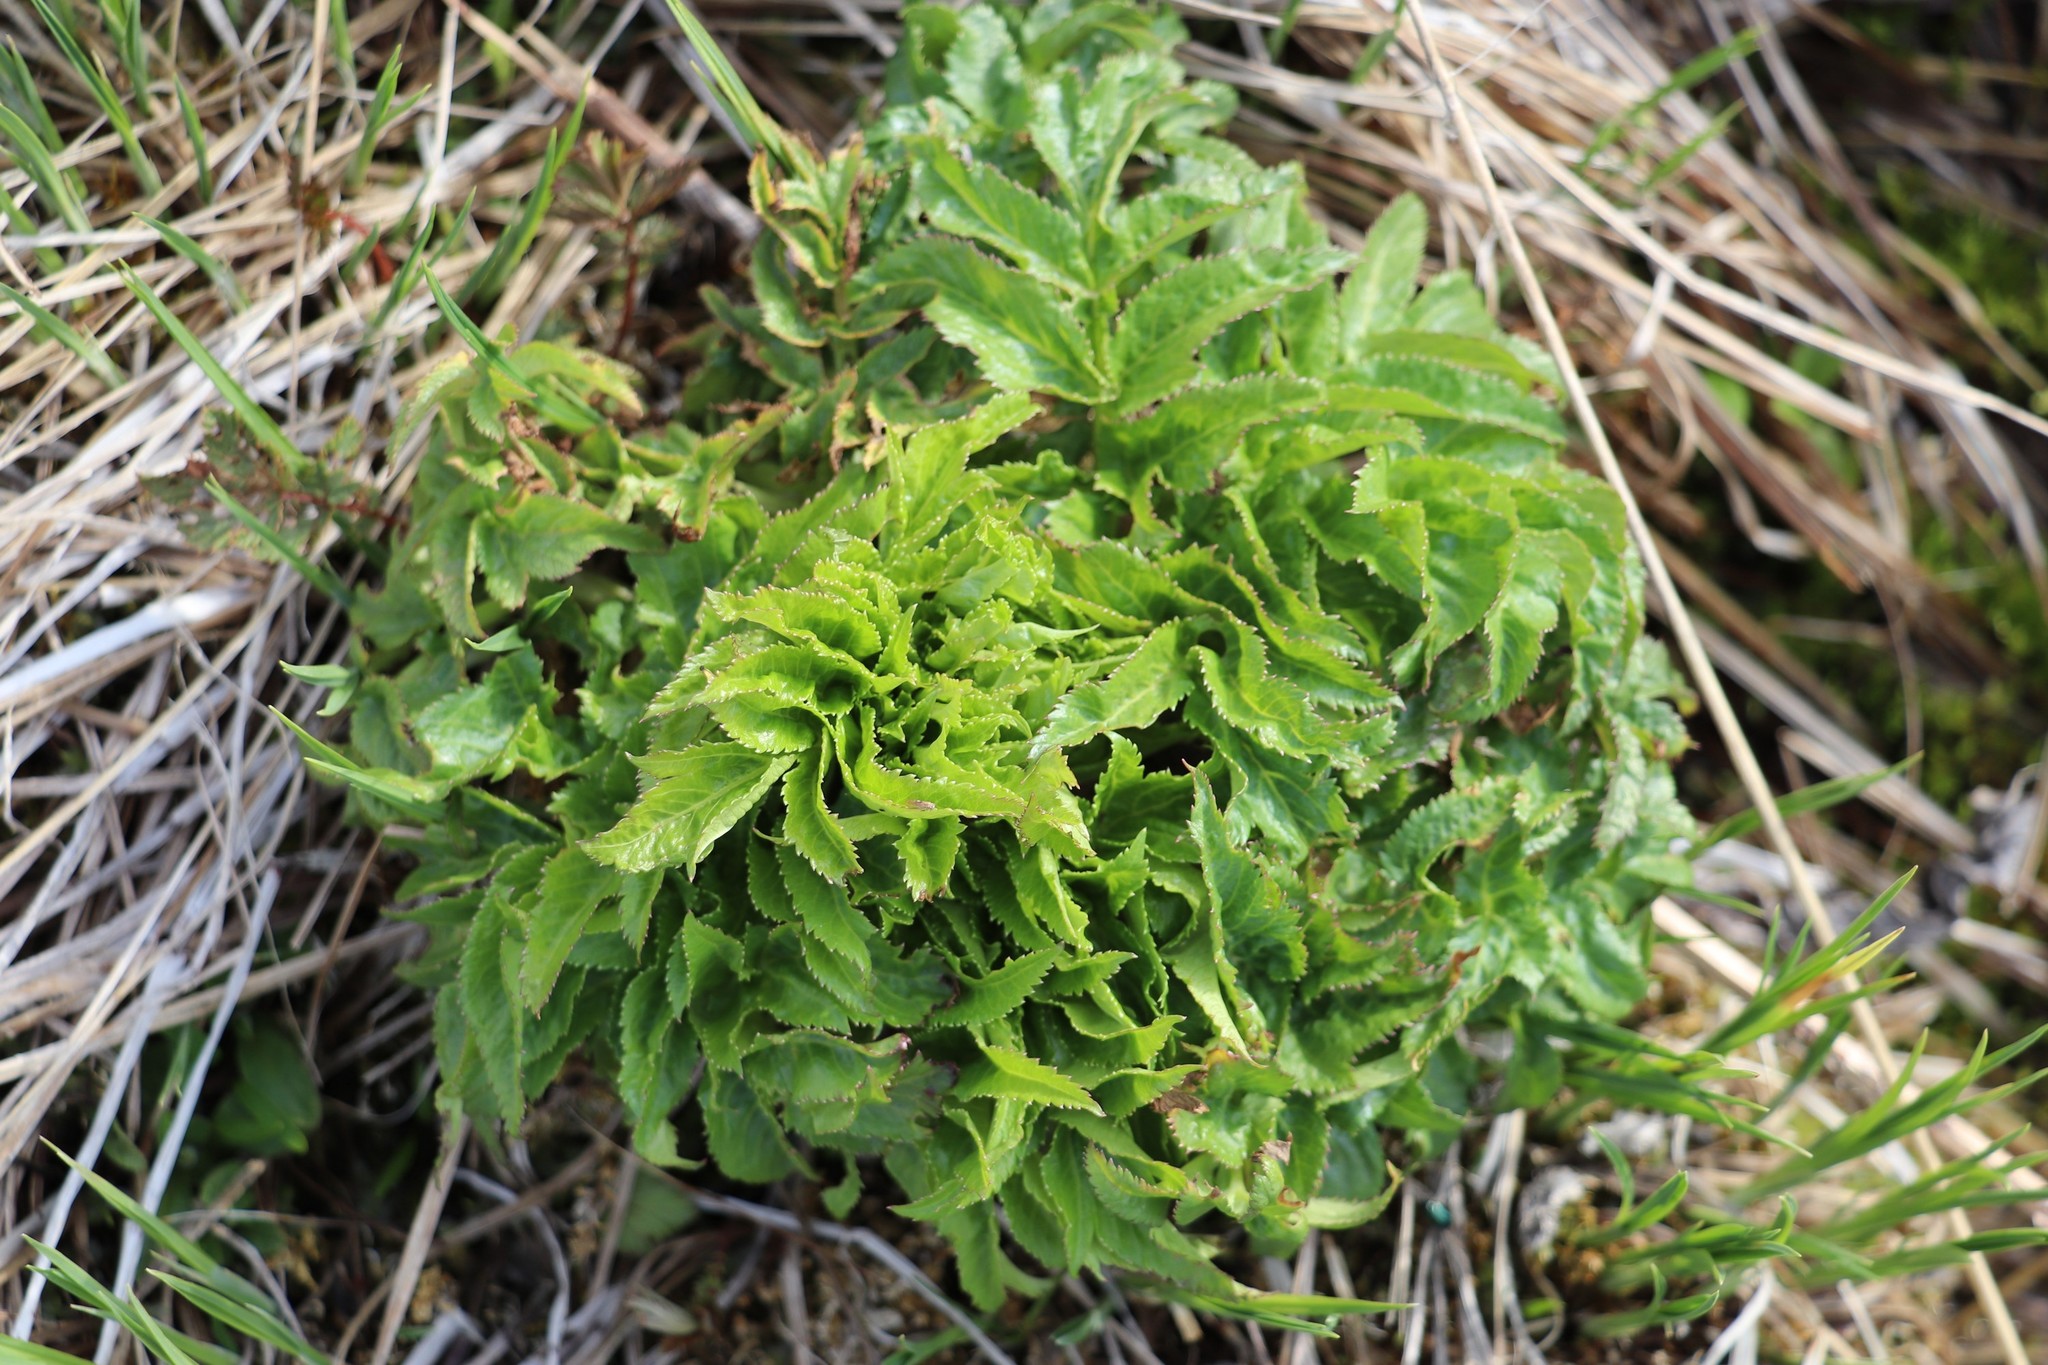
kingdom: Plantae
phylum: Tracheophyta
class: Magnoliopsida
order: Apiales
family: Apiaceae
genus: Angelica
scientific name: Angelica decurrens
